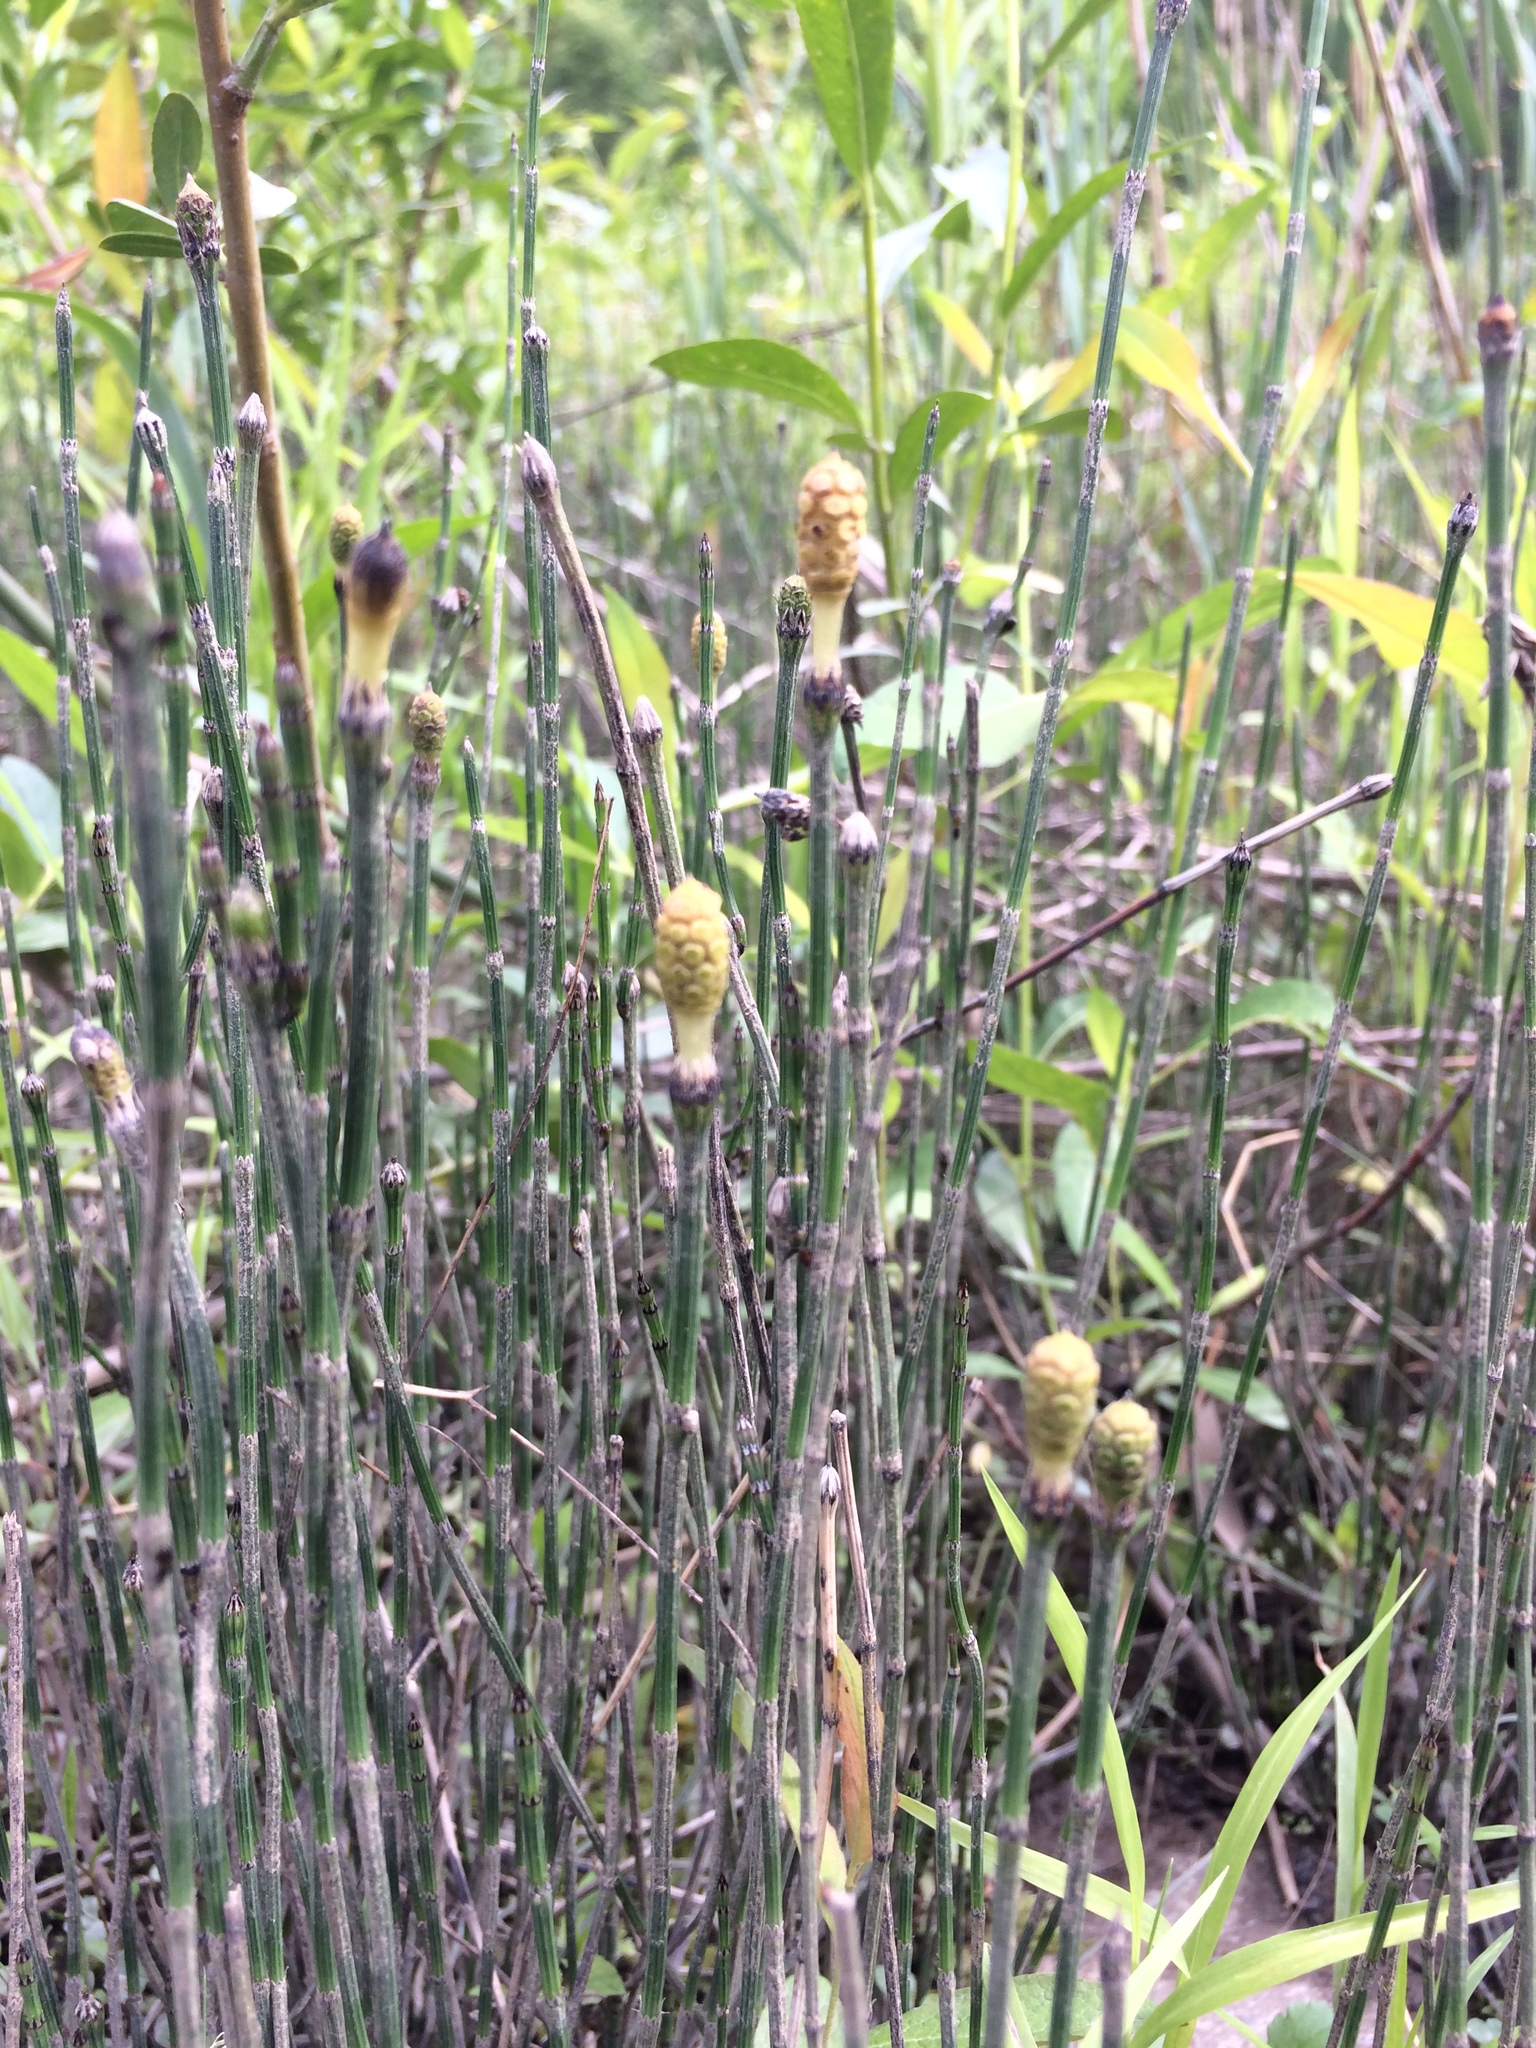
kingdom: Plantae
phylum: Tracheophyta
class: Polypodiopsida
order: Equisetales
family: Equisetaceae
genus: Equisetum
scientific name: Equisetum variegatum
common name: Variegated horsetail
